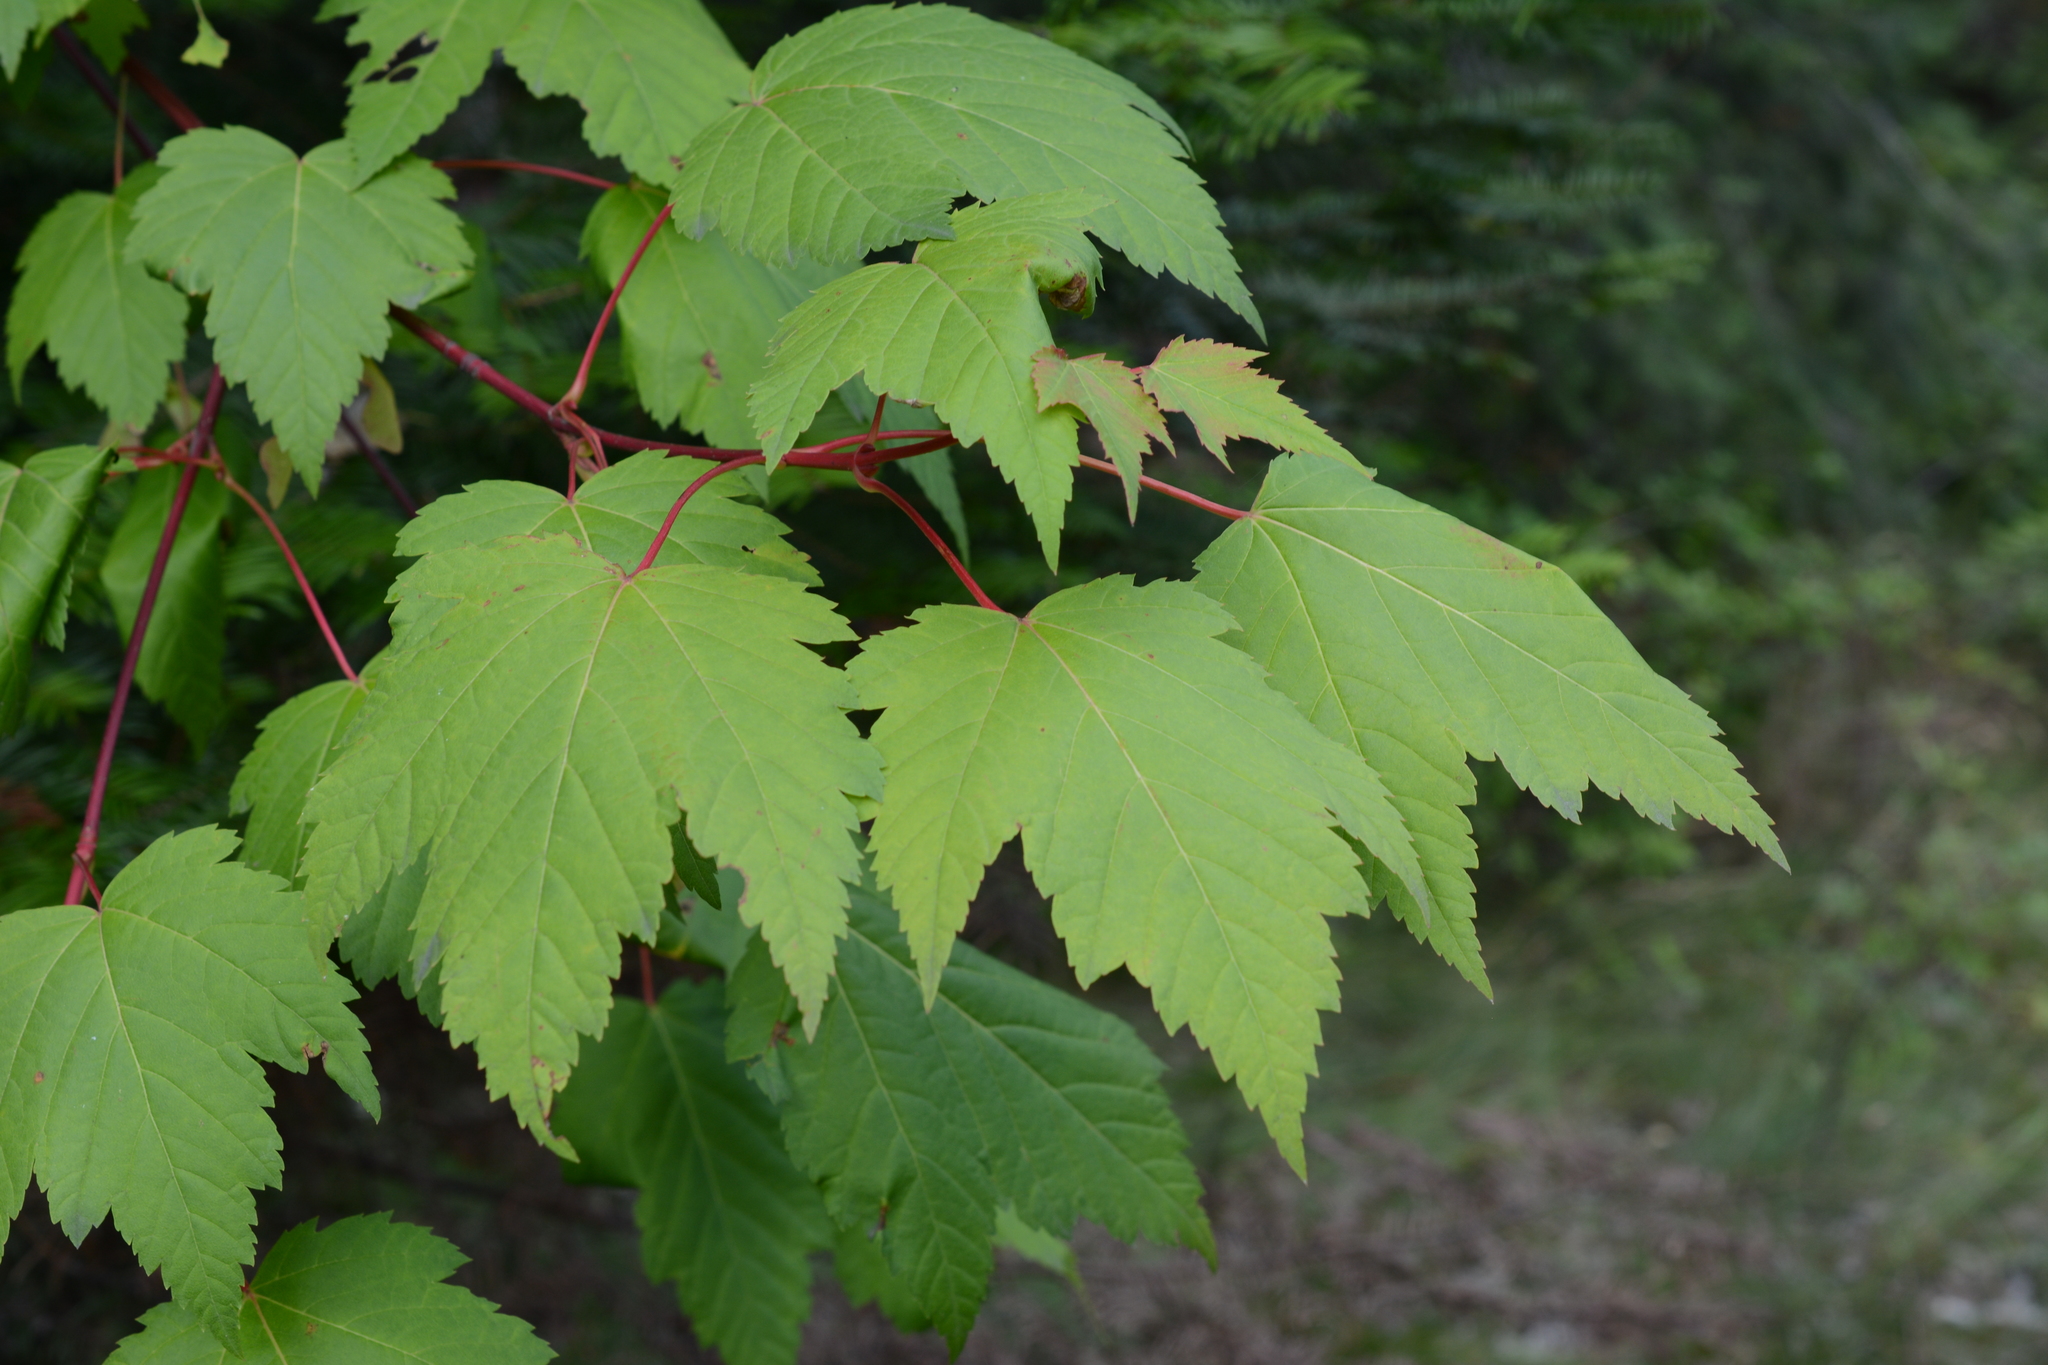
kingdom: Plantae
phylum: Tracheophyta
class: Magnoliopsida
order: Sapindales
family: Sapindaceae
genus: Acer
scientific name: Acer glabrum
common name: Rocky mountain maple
